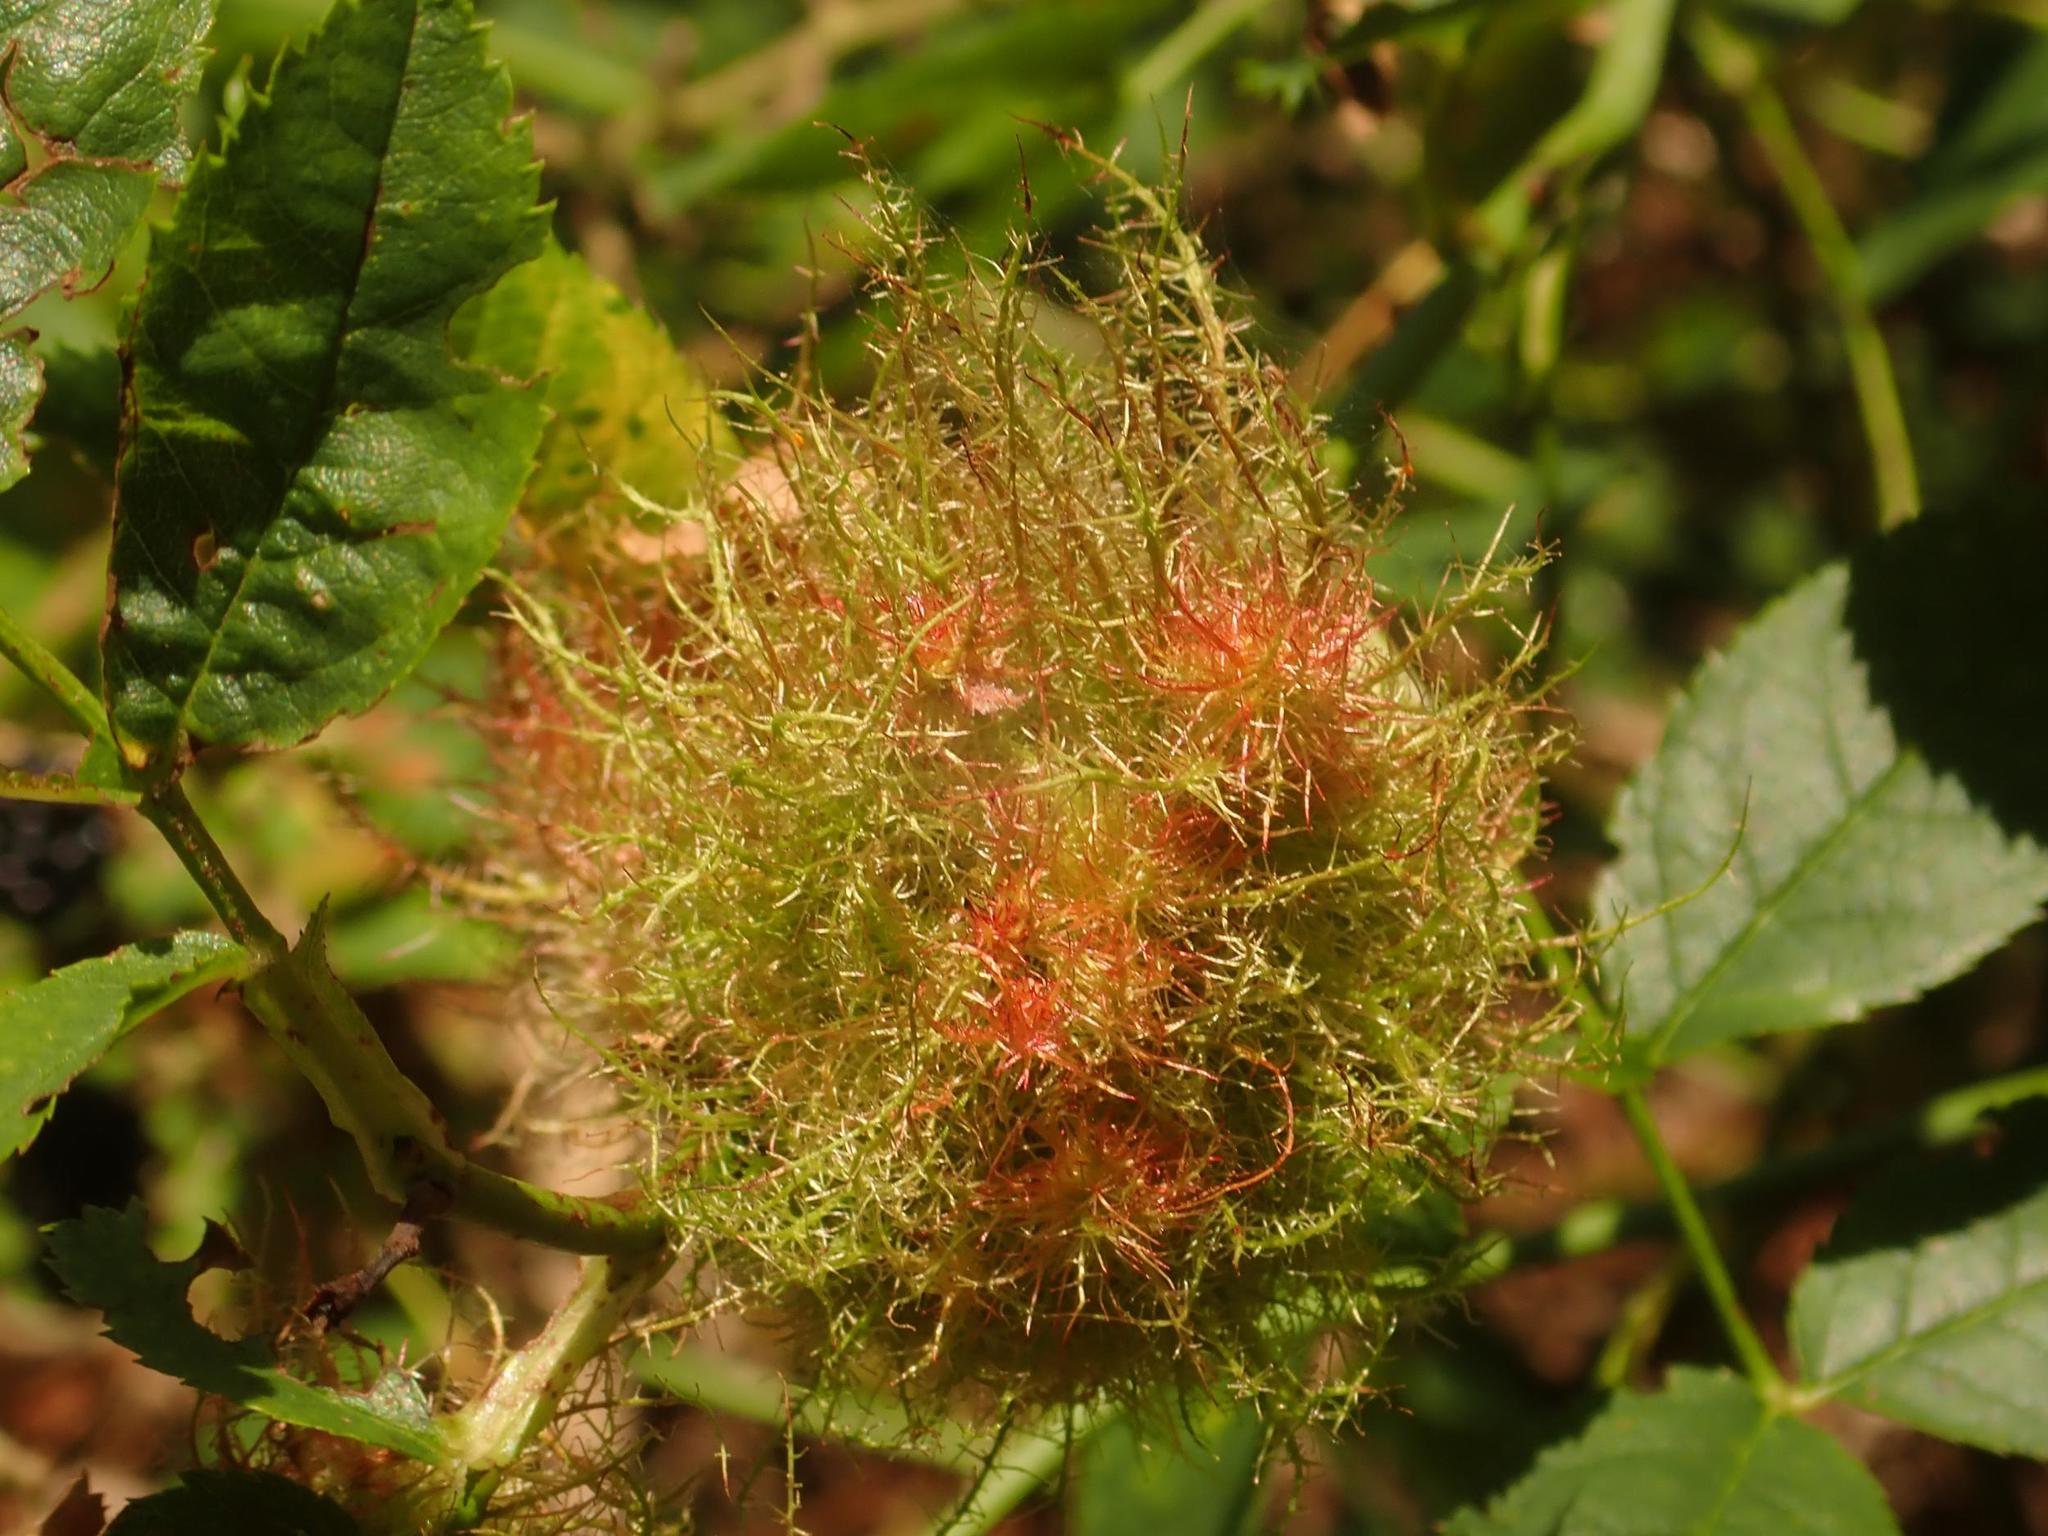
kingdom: Animalia
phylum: Arthropoda
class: Insecta
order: Hymenoptera
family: Cynipidae
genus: Diplolepis
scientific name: Diplolepis rosae
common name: Bedeguar gall
